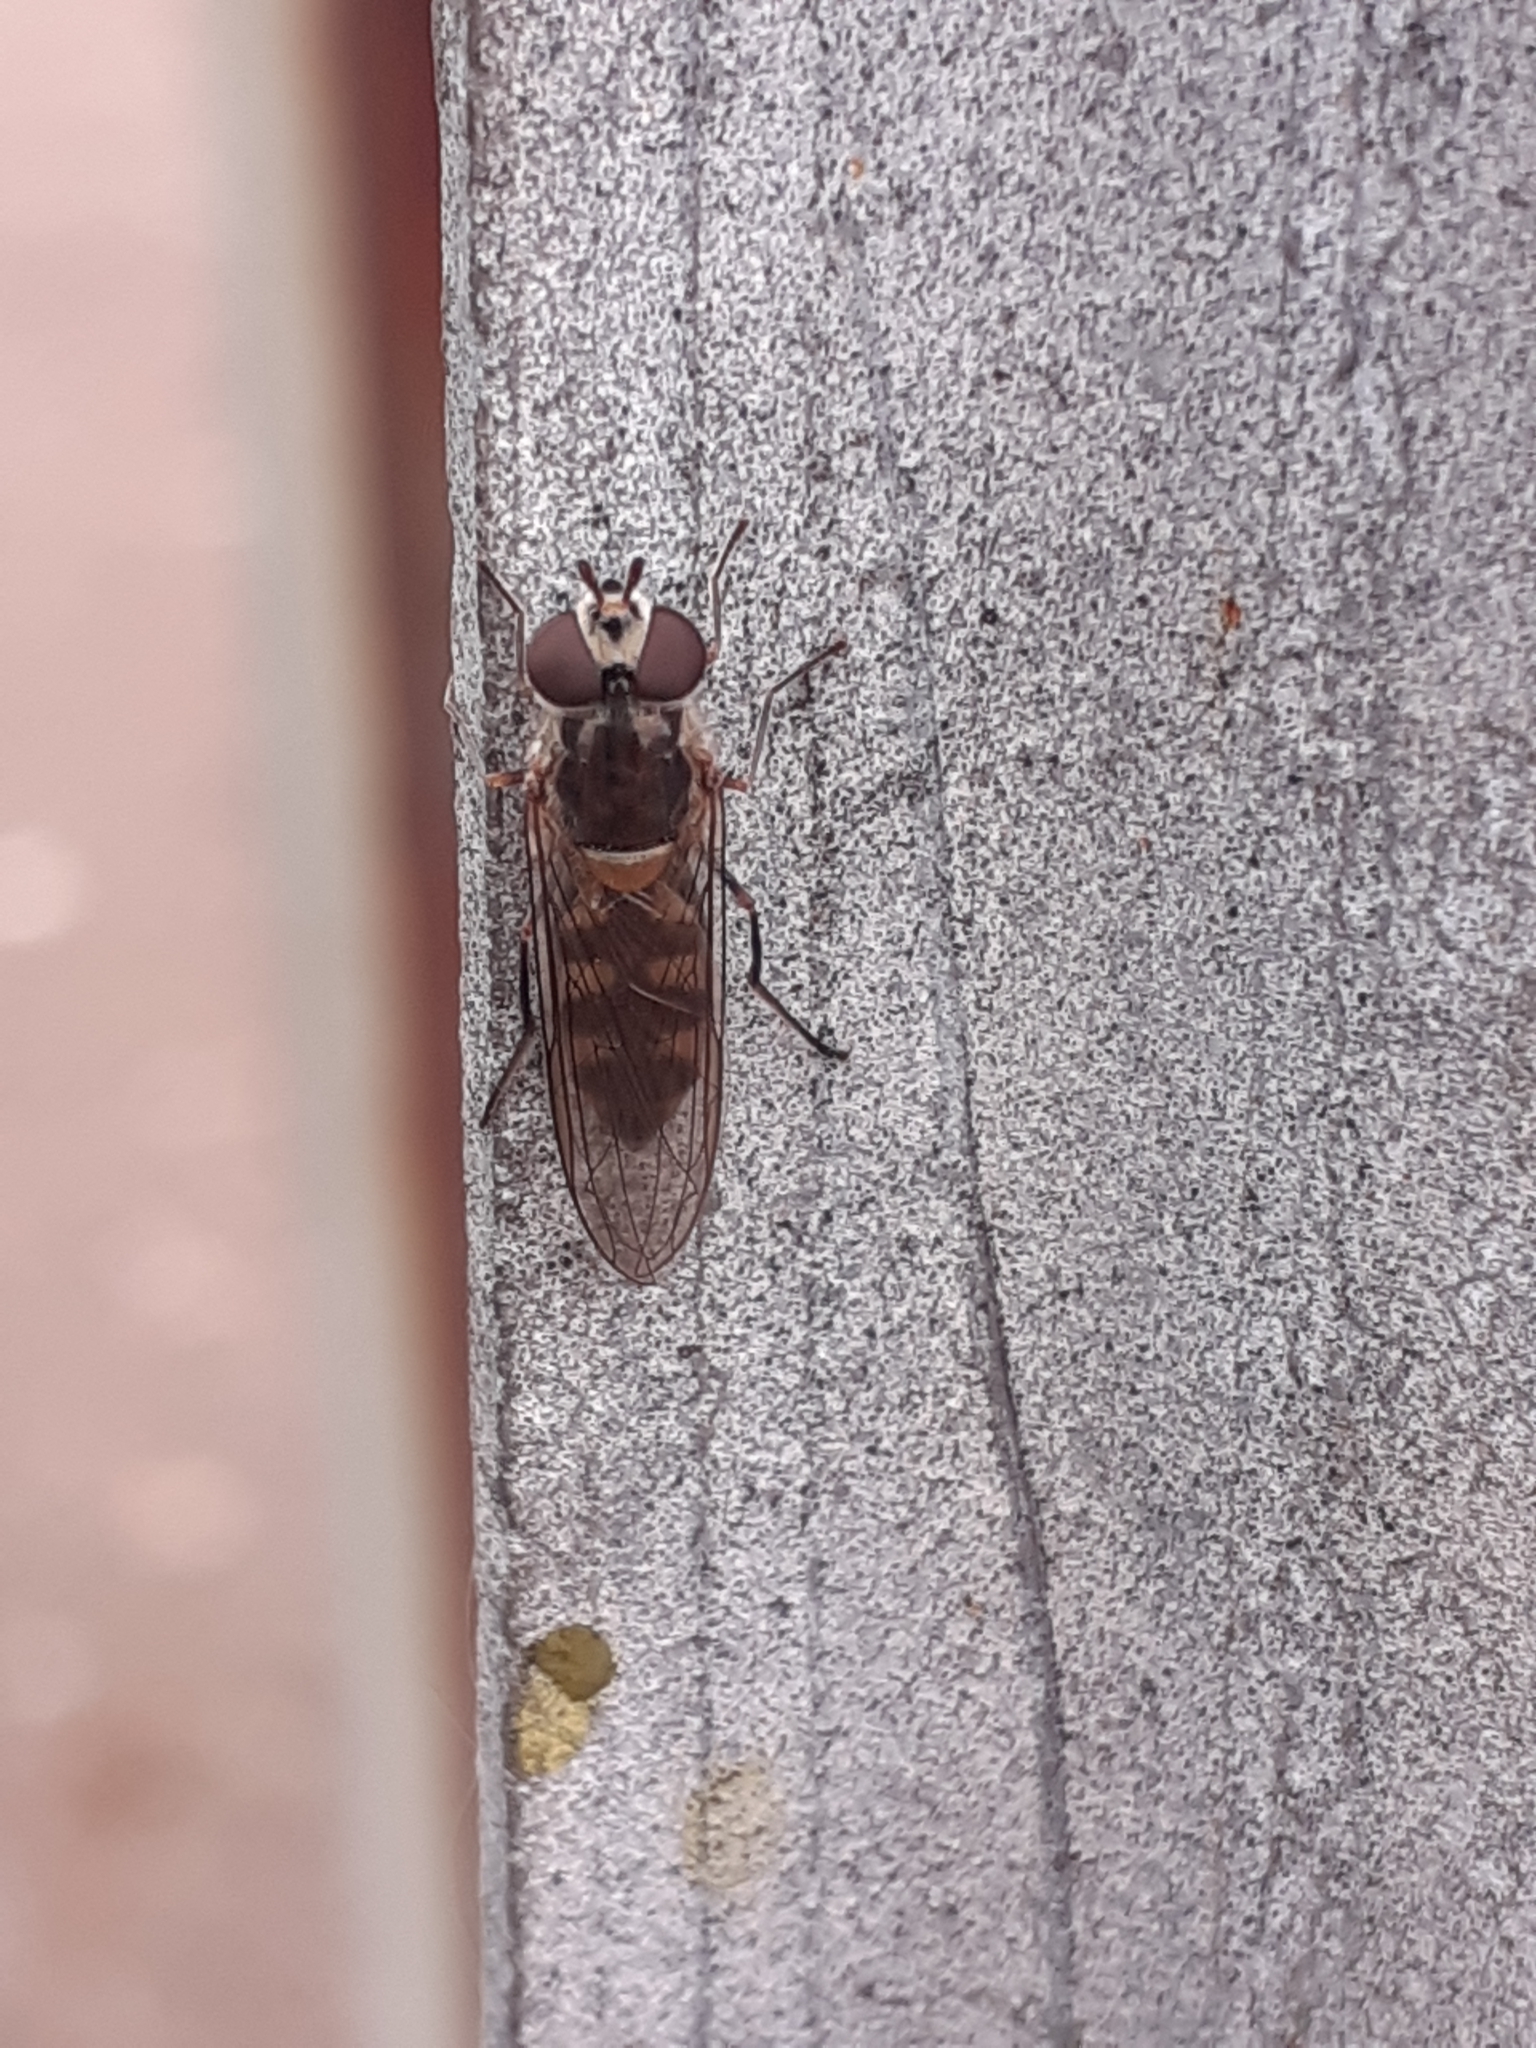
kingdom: Animalia
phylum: Arthropoda
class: Insecta
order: Diptera
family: Syrphidae
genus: Meliscaeva
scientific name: Meliscaeva auricollis
